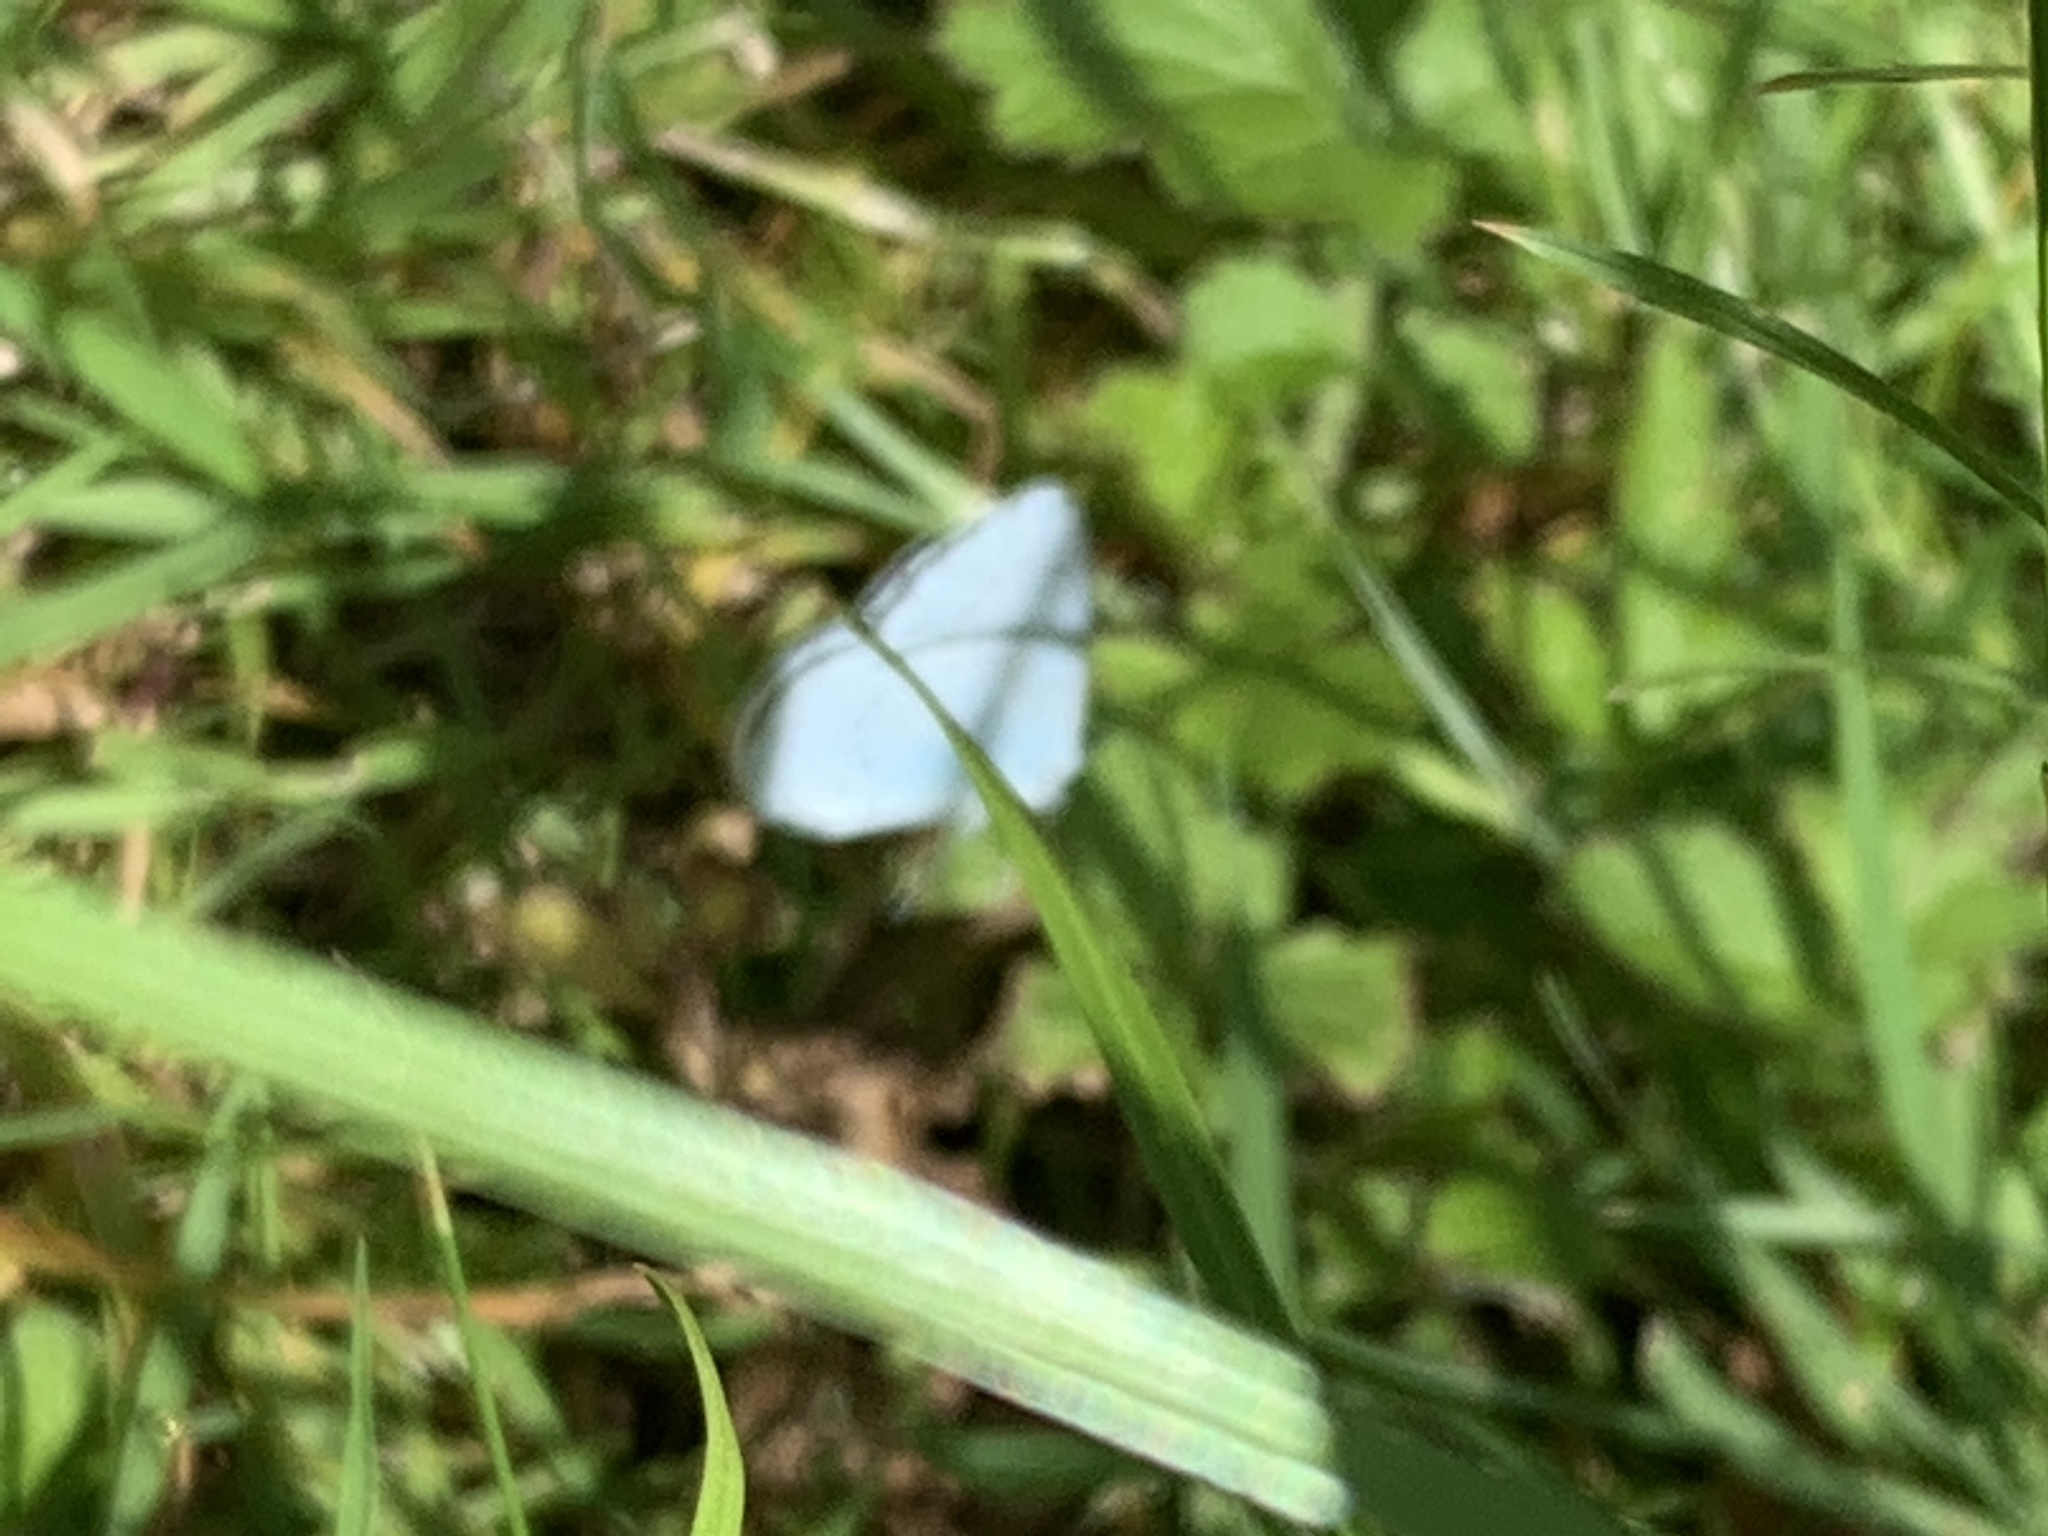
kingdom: Animalia
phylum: Arthropoda
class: Insecta
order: Lepidoptera
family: Lycaenidae
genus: Celastrina
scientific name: Celastrina argiolus
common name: Holly blue
